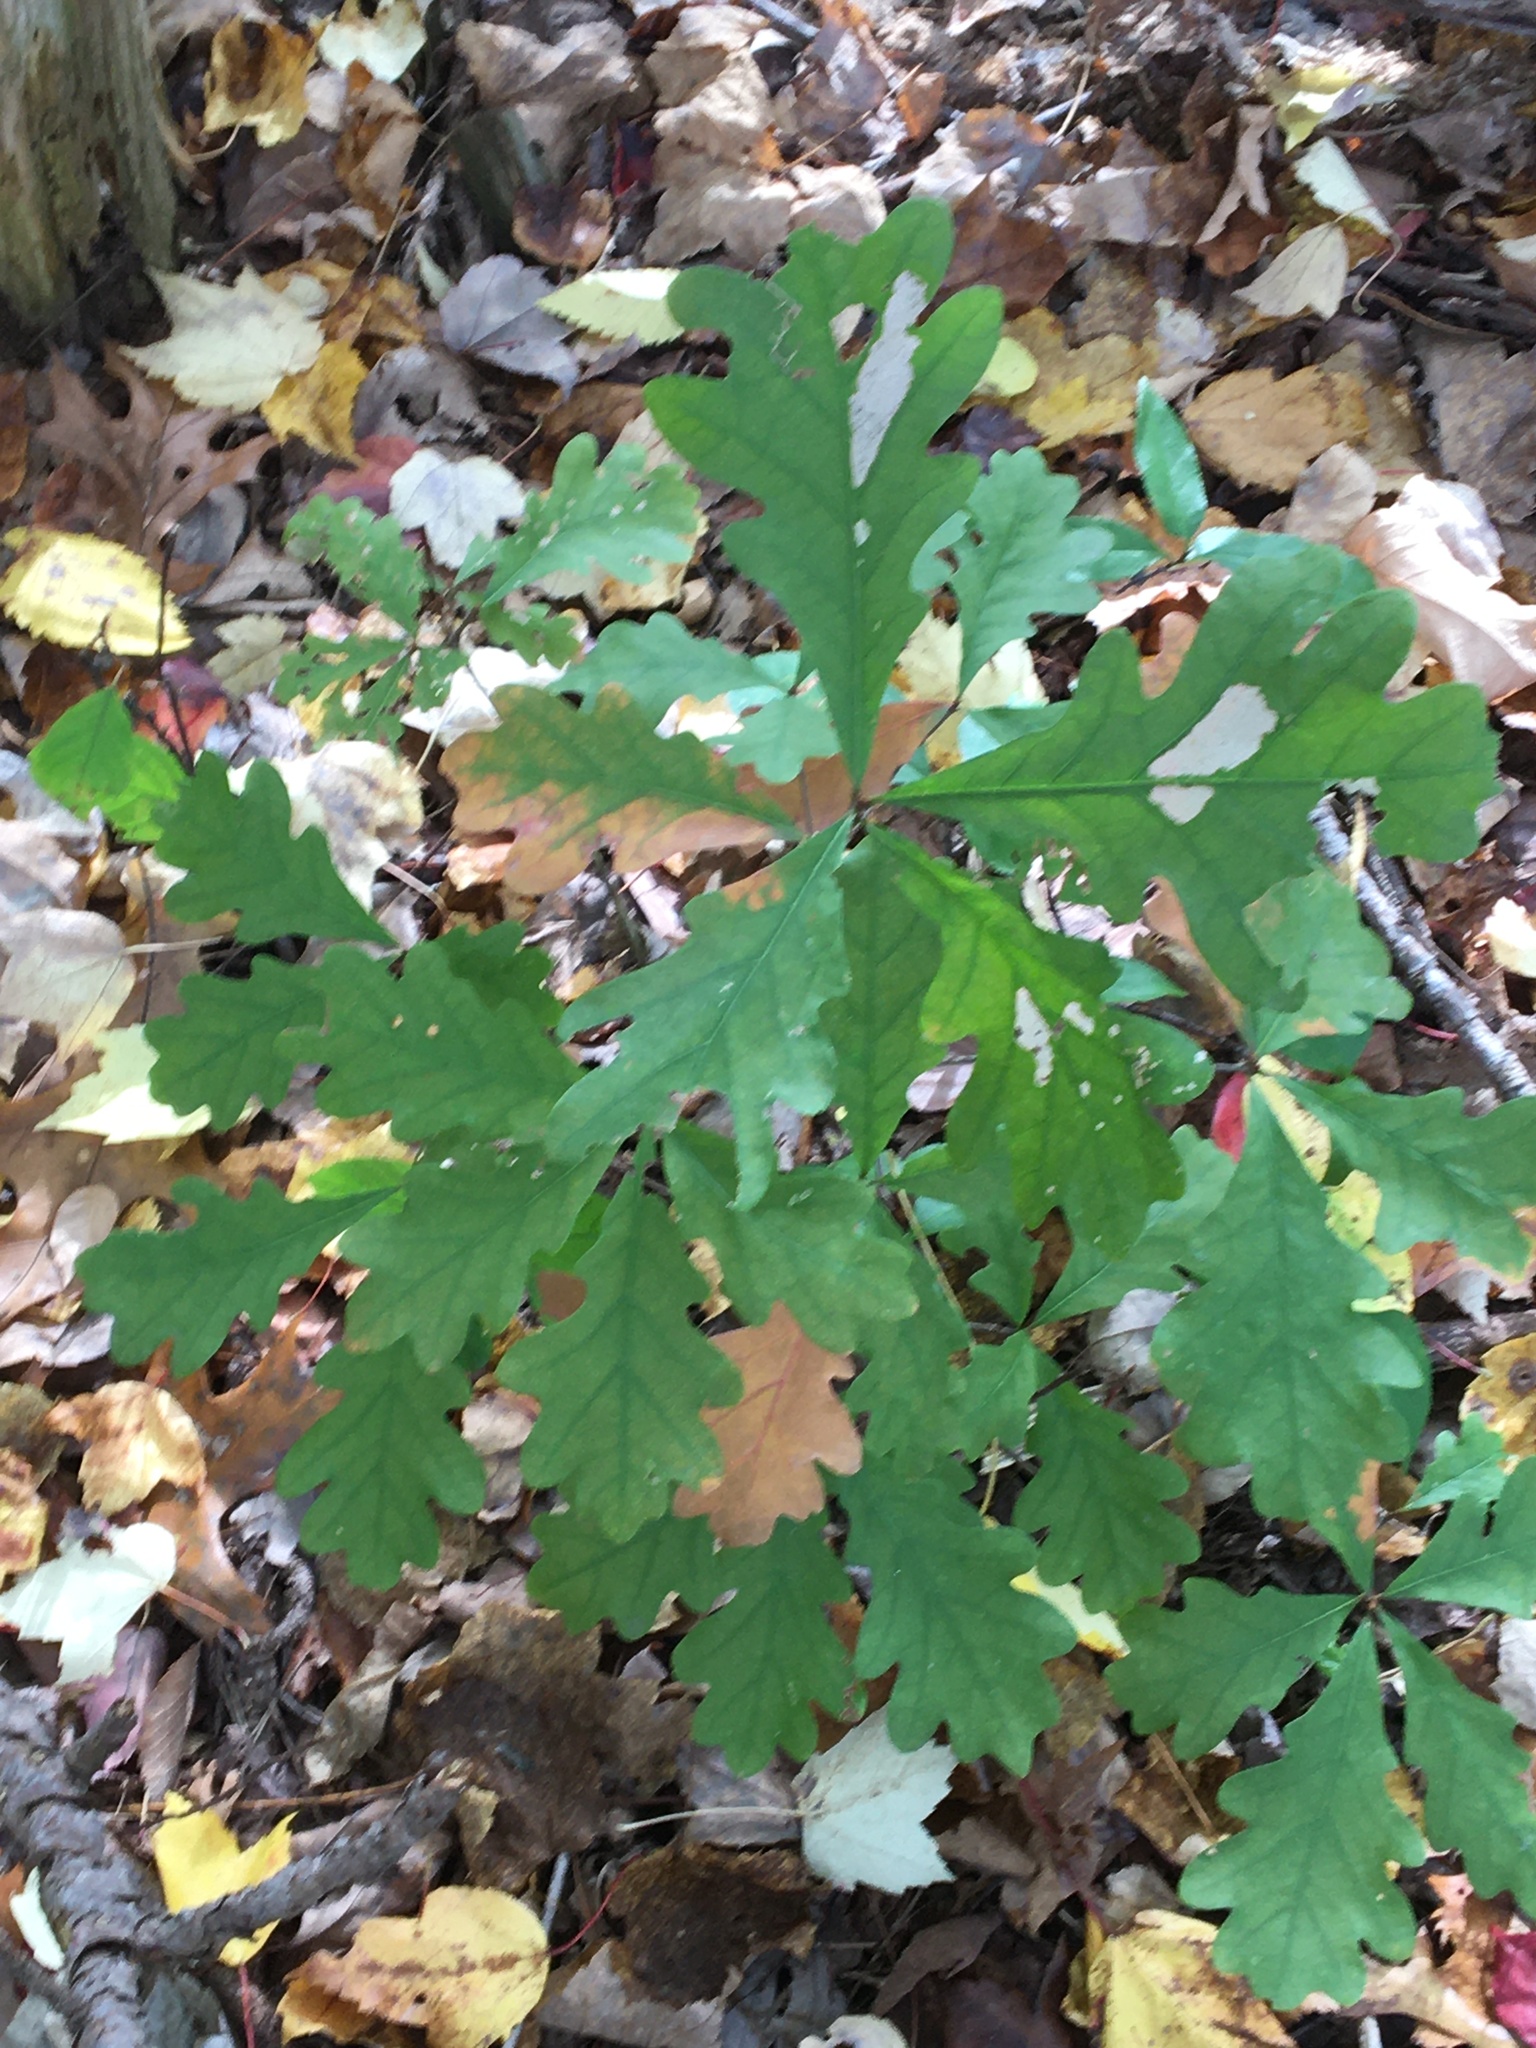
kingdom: Plantae
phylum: Tracheophyta
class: Magnoliopsida
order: Fagales
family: Fagaceae
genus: Quercus
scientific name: Quercus alba
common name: White oak
